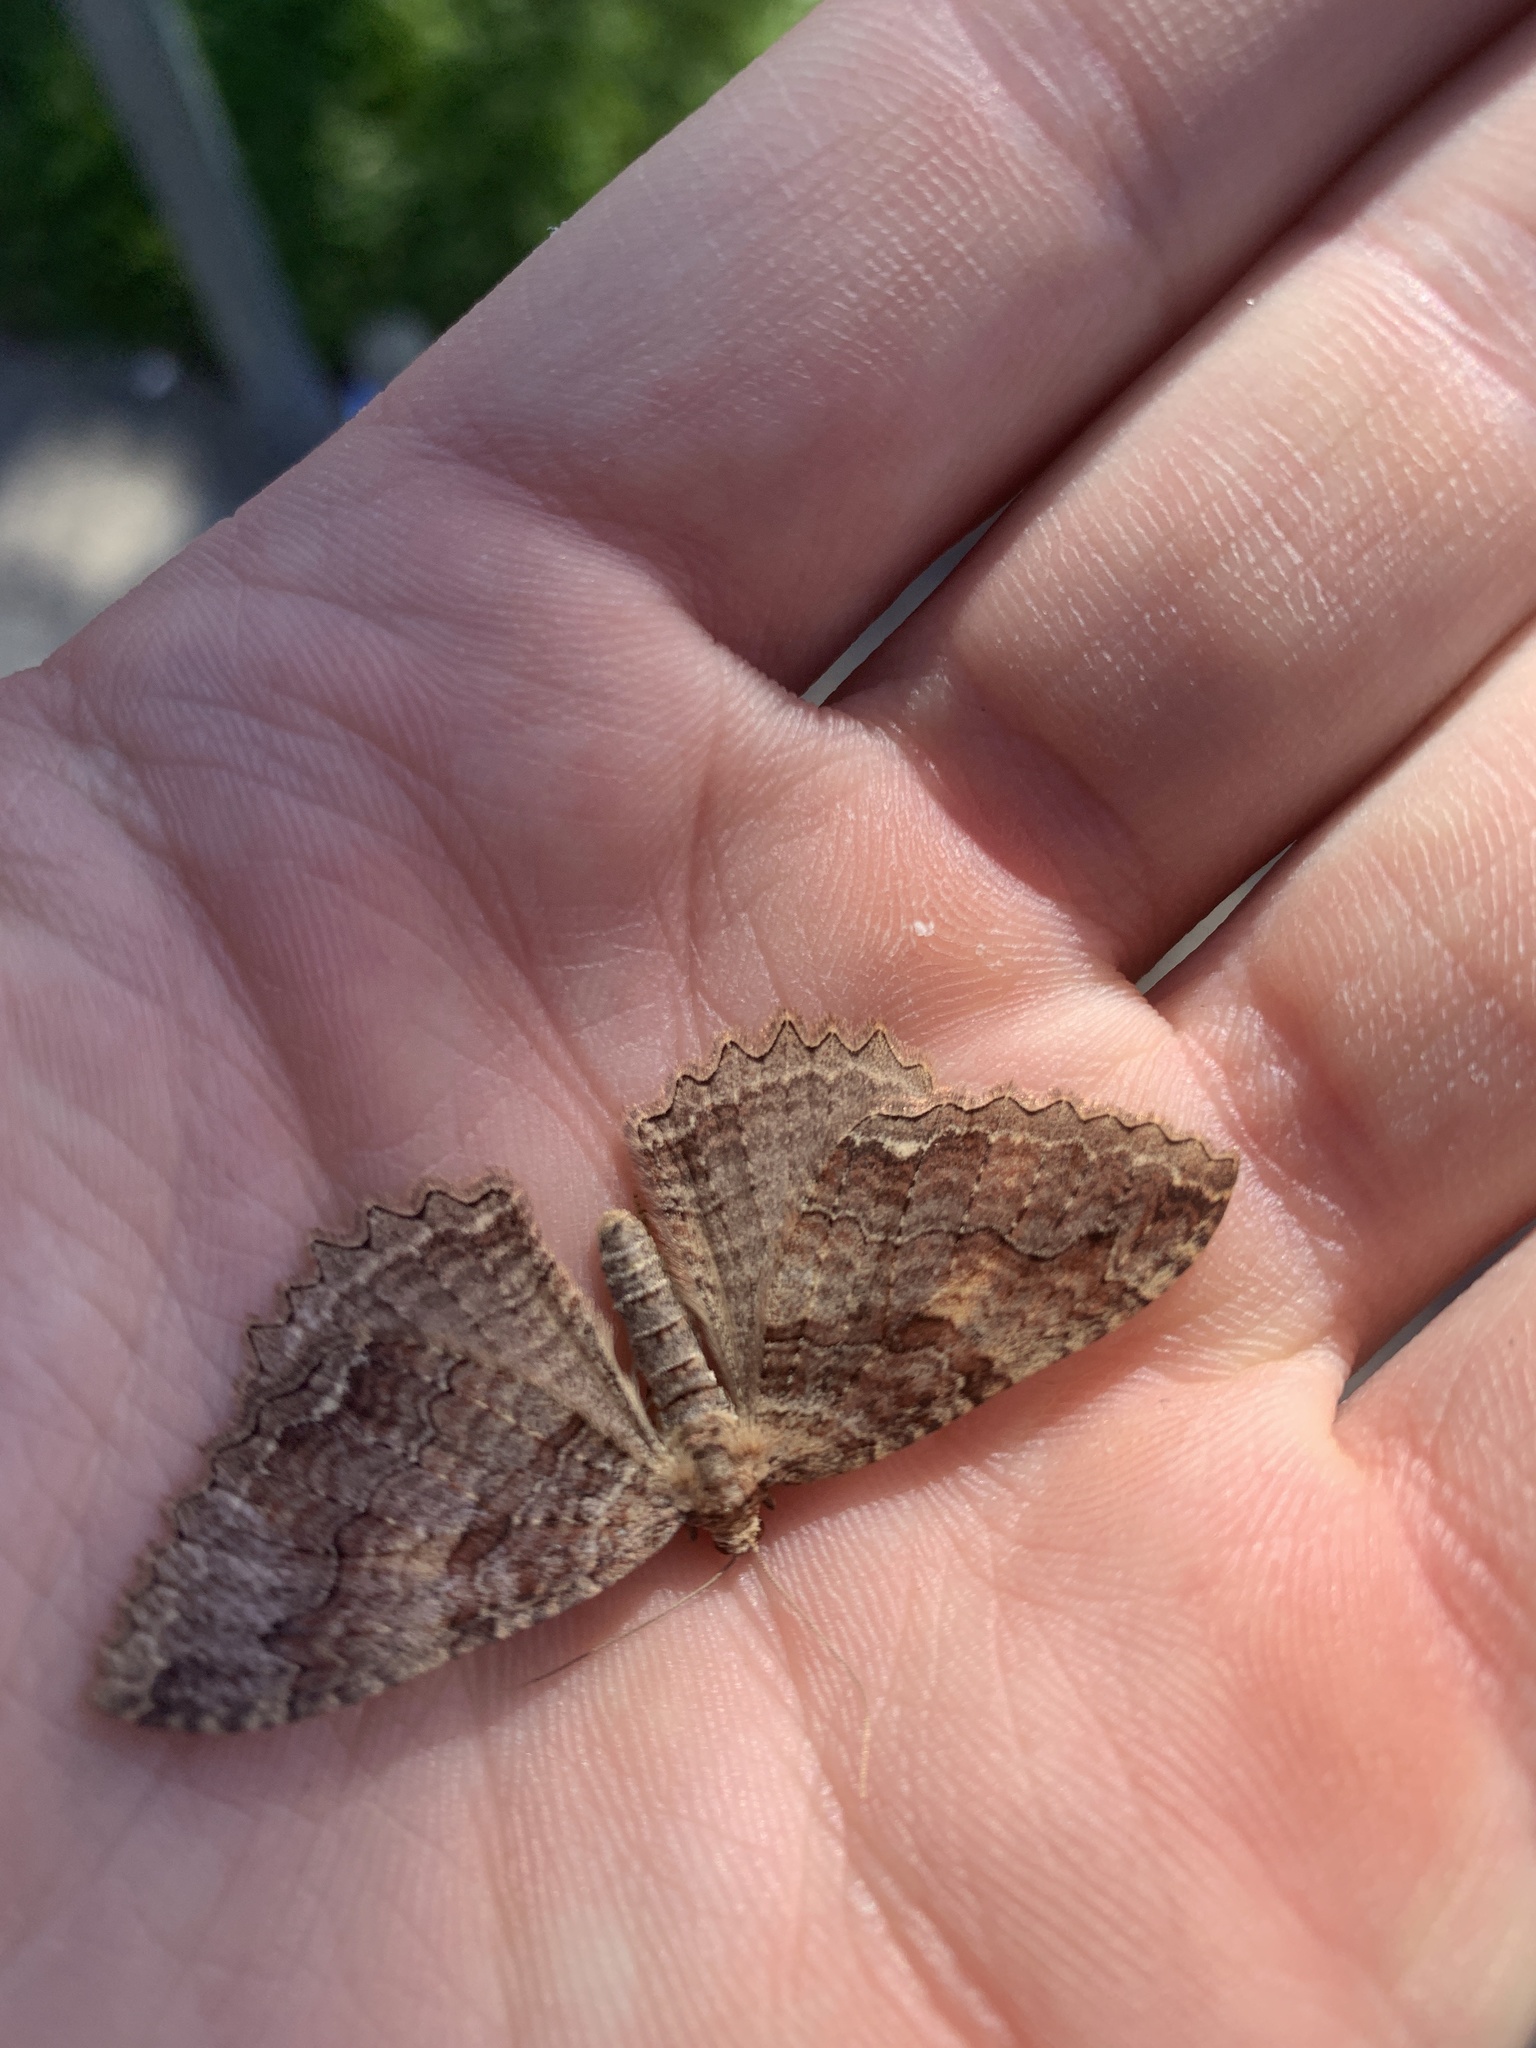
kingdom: Animalia
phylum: Arthropoda
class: Insecta
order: Lepidoptera
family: Geometridae
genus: Triphosa
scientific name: Triphosa haesitata
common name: Tissue moth
